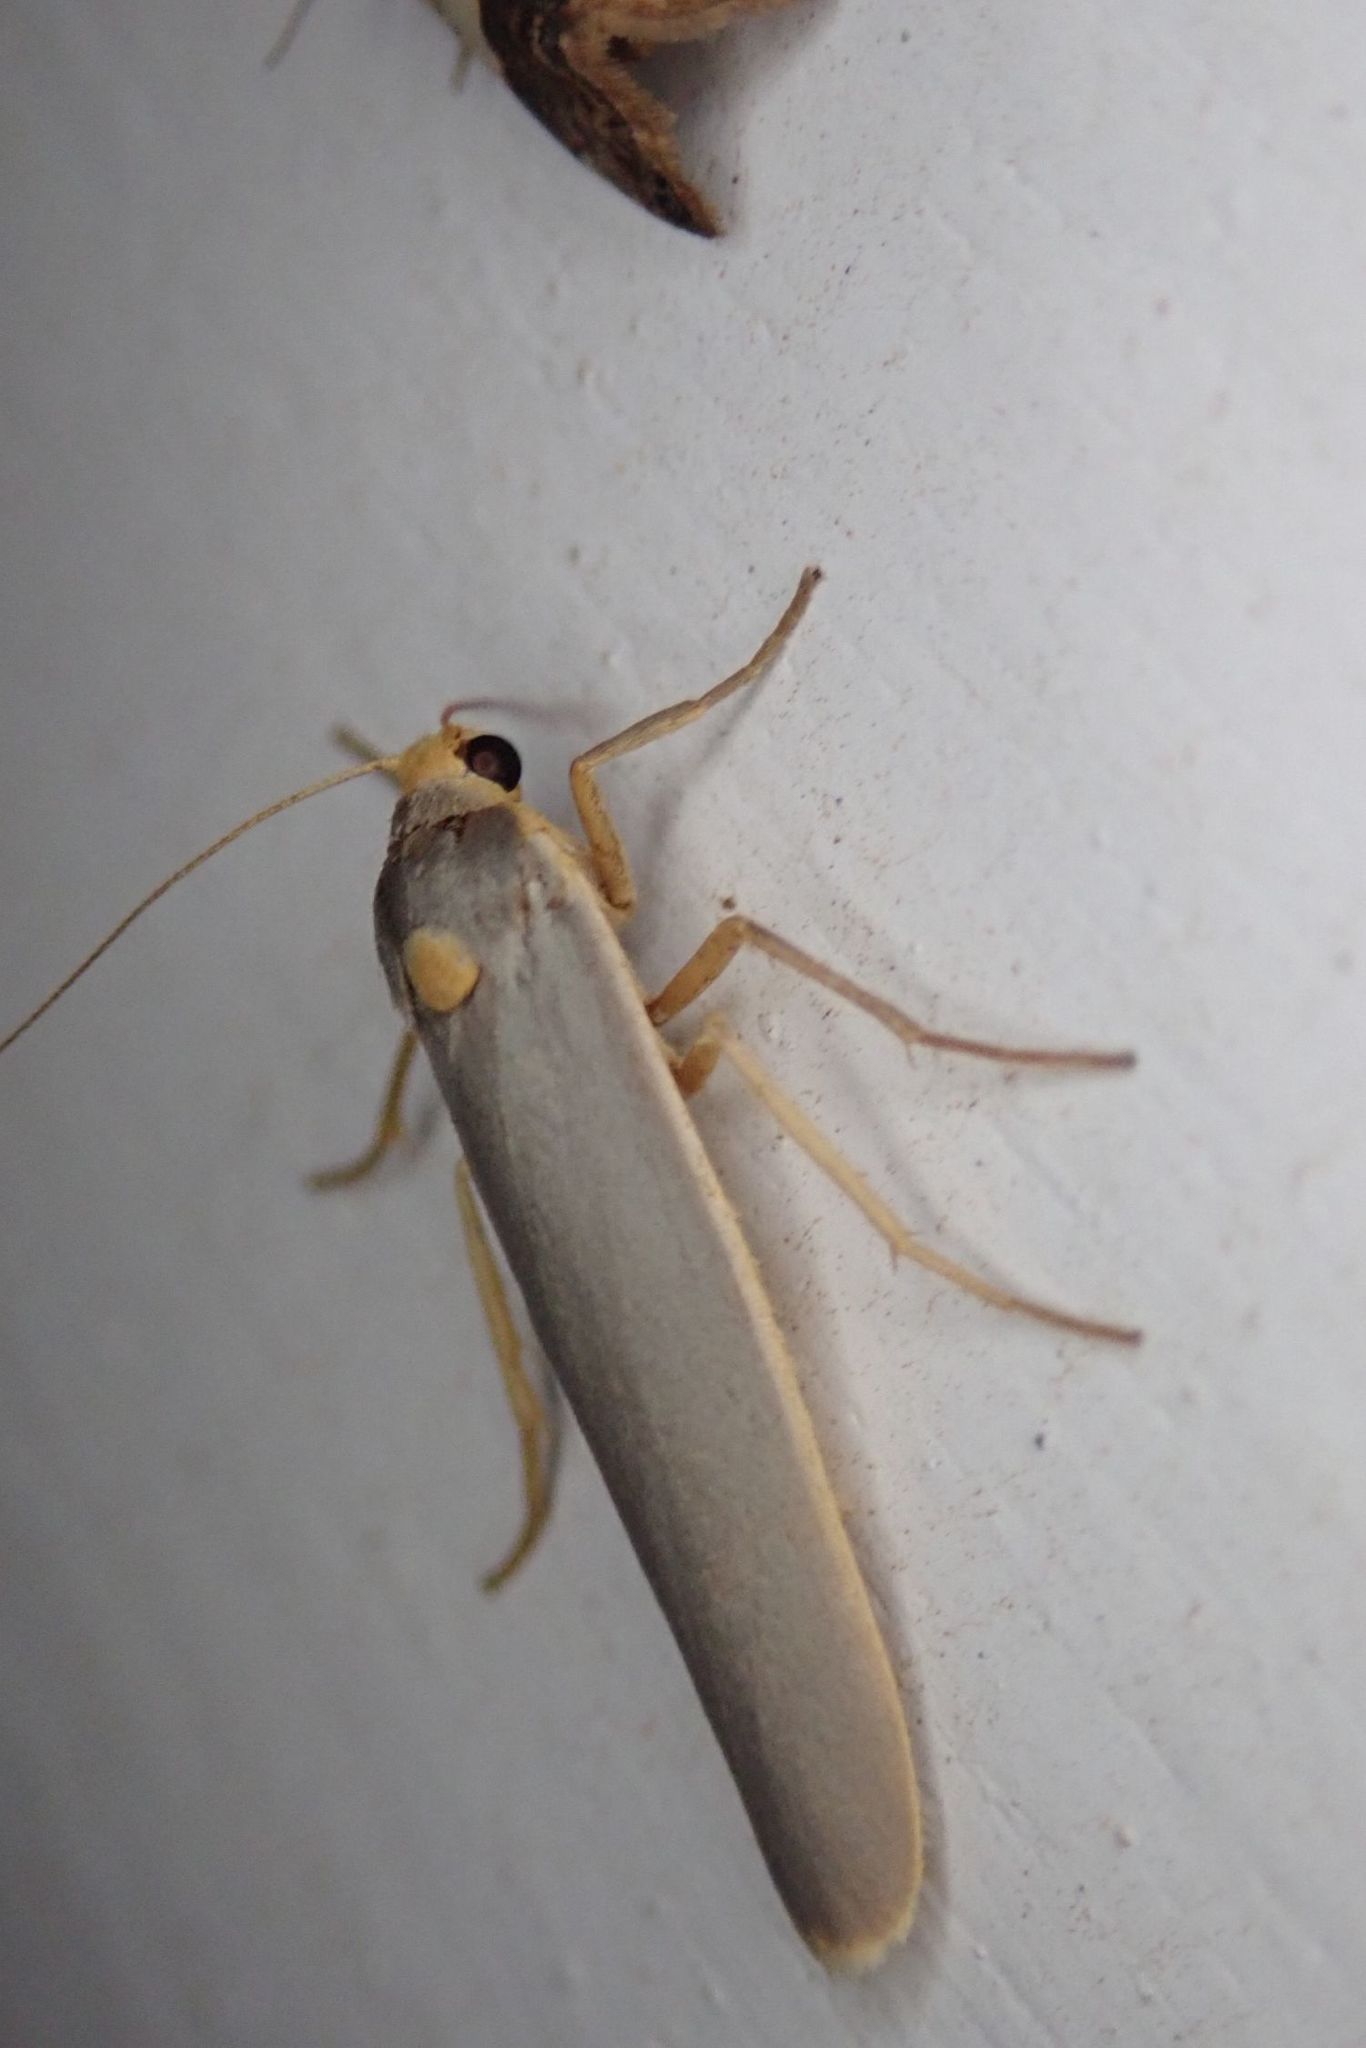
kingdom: Animalia
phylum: Arthropoda
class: Insecta
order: Lepidoptera
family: Erebidae
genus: Sozusa
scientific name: Sozusa scutellata
